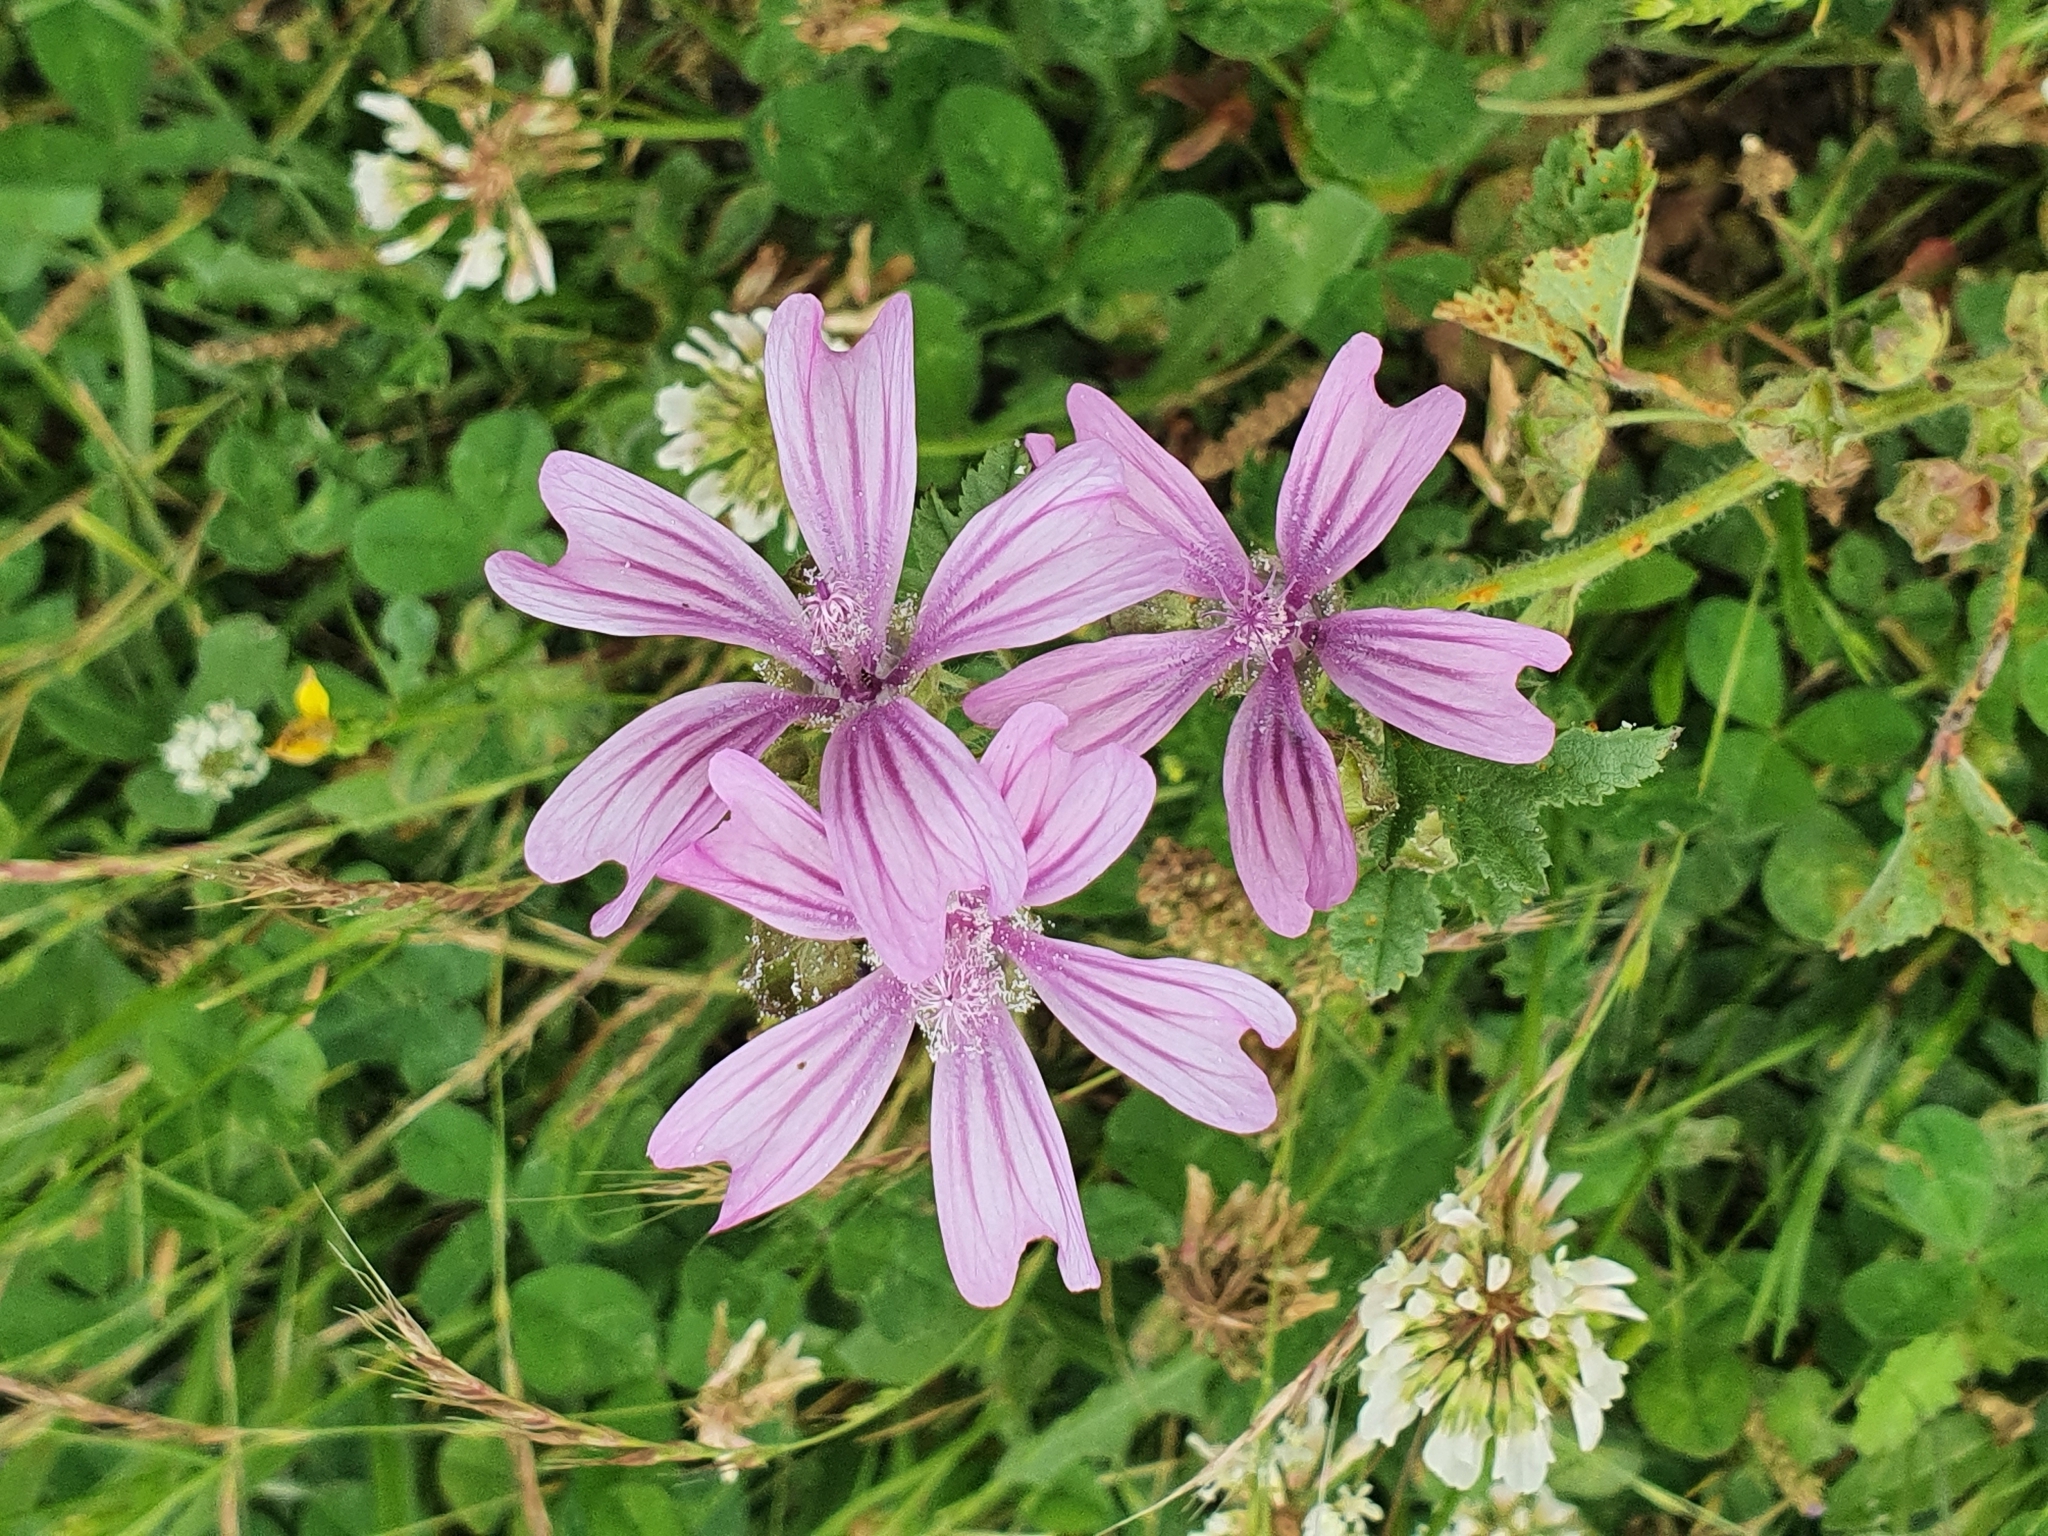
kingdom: Plantae
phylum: Tracheophyta
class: Magnoliopsida
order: Malvales
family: Malvaceae
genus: Malva
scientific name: Malva sylvestris
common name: Common mallow
